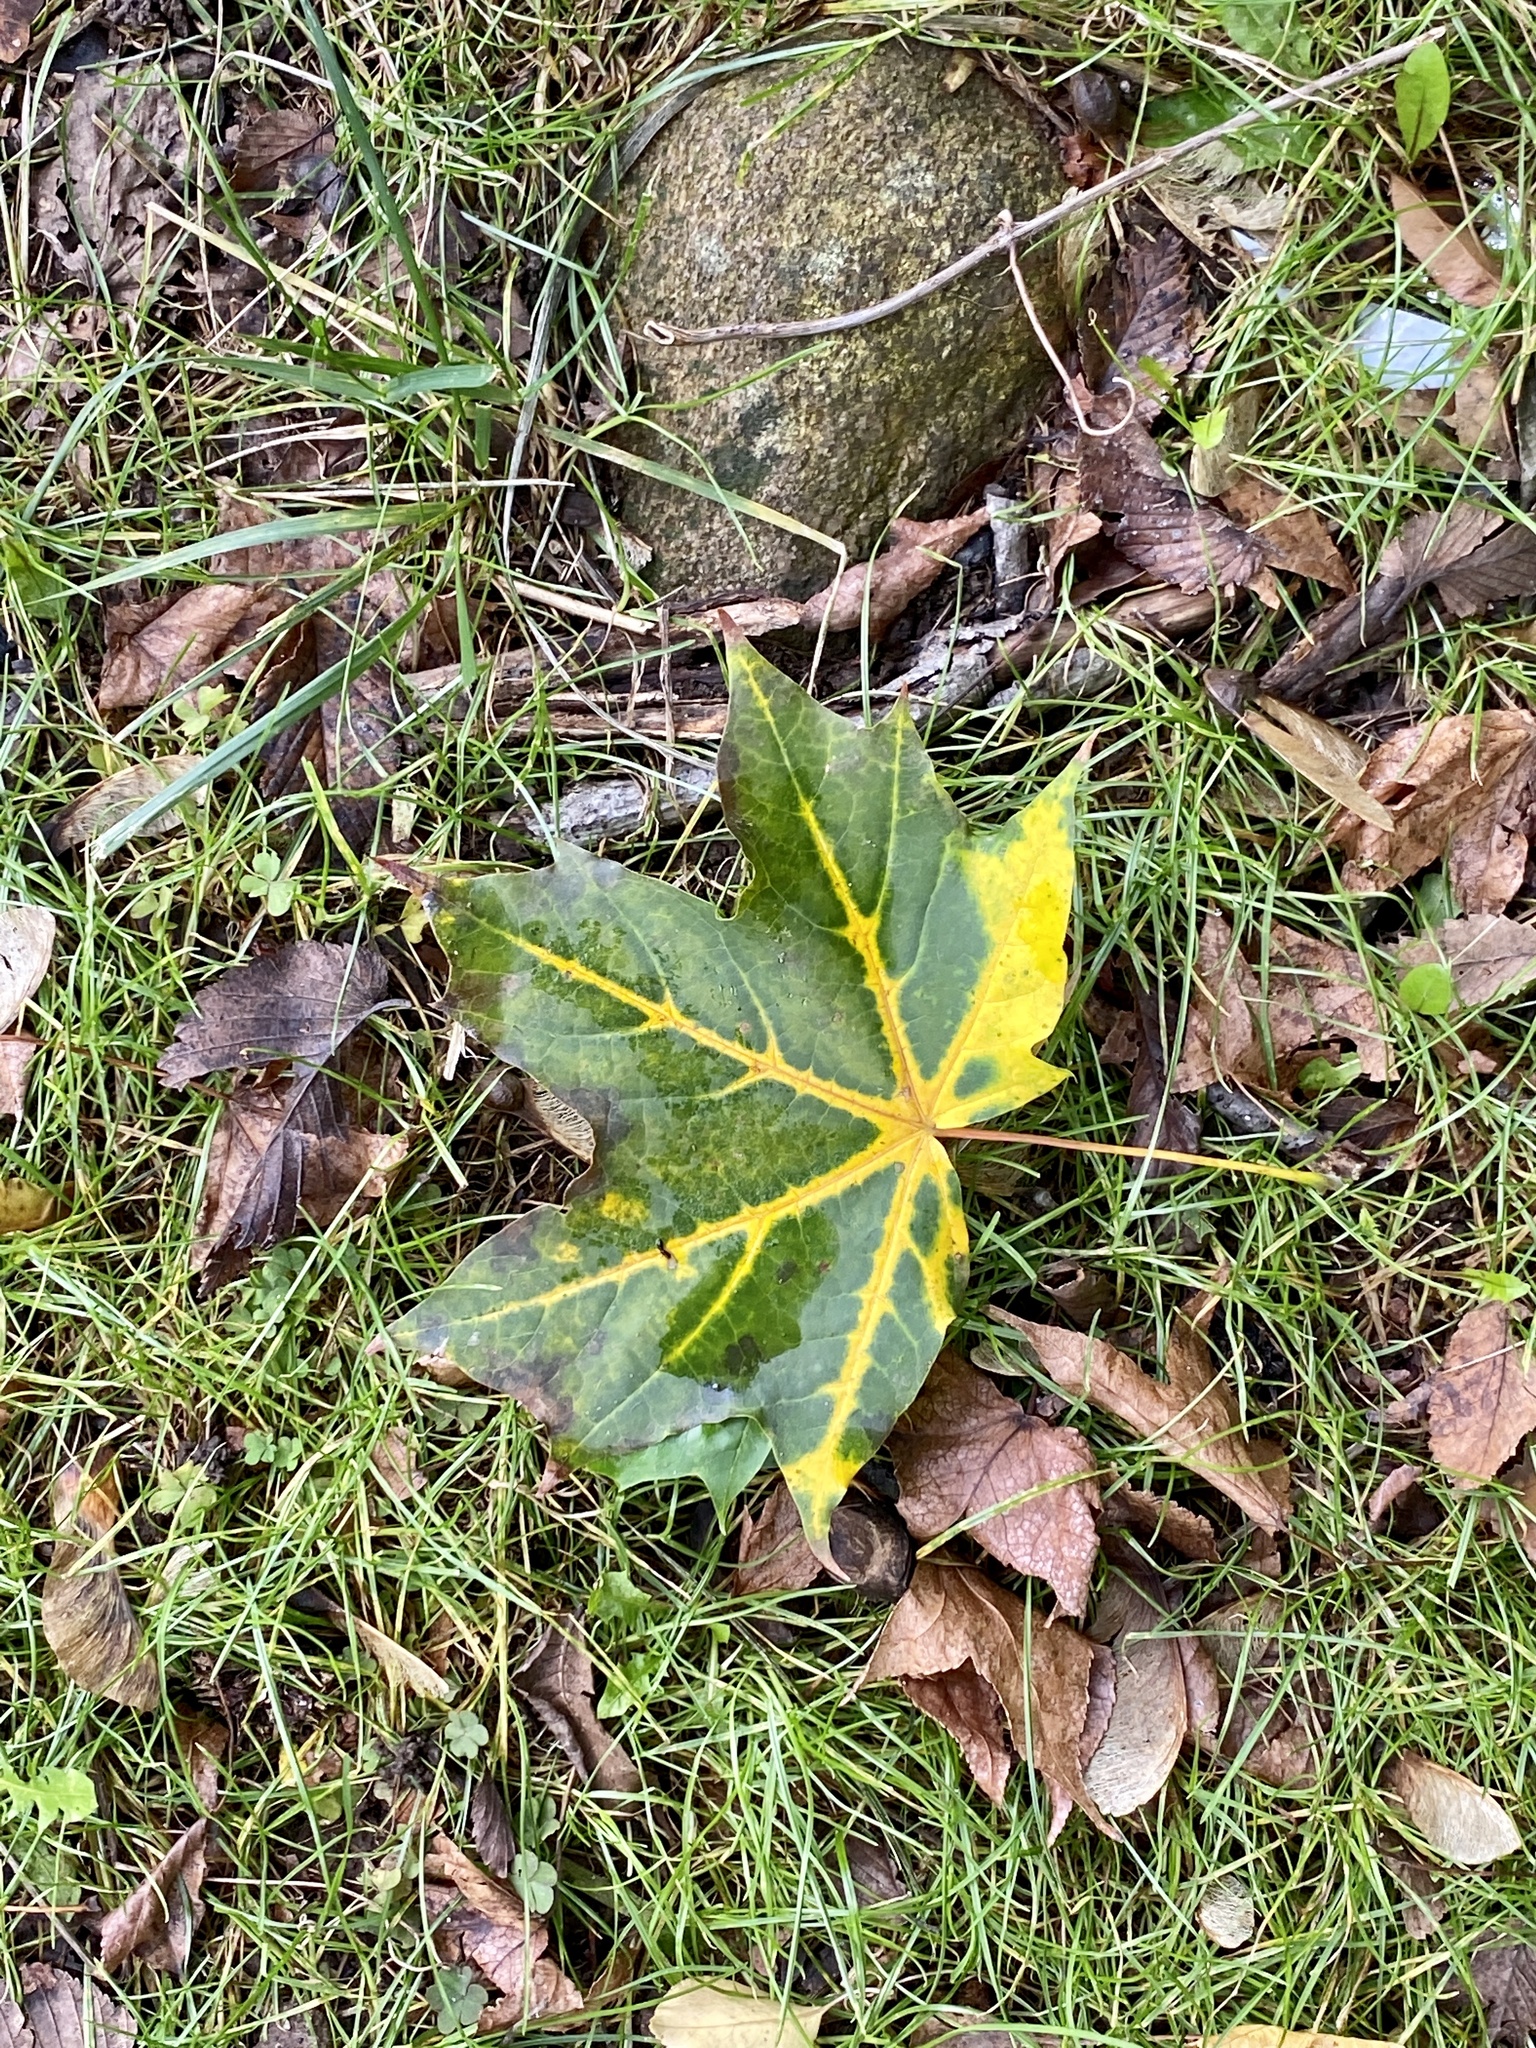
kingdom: Plantae
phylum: Tracheophyta
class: Magnoliopsida
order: Sapindales
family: Sapindaceae
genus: Acer
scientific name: Acer platanoides
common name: Norway maple
